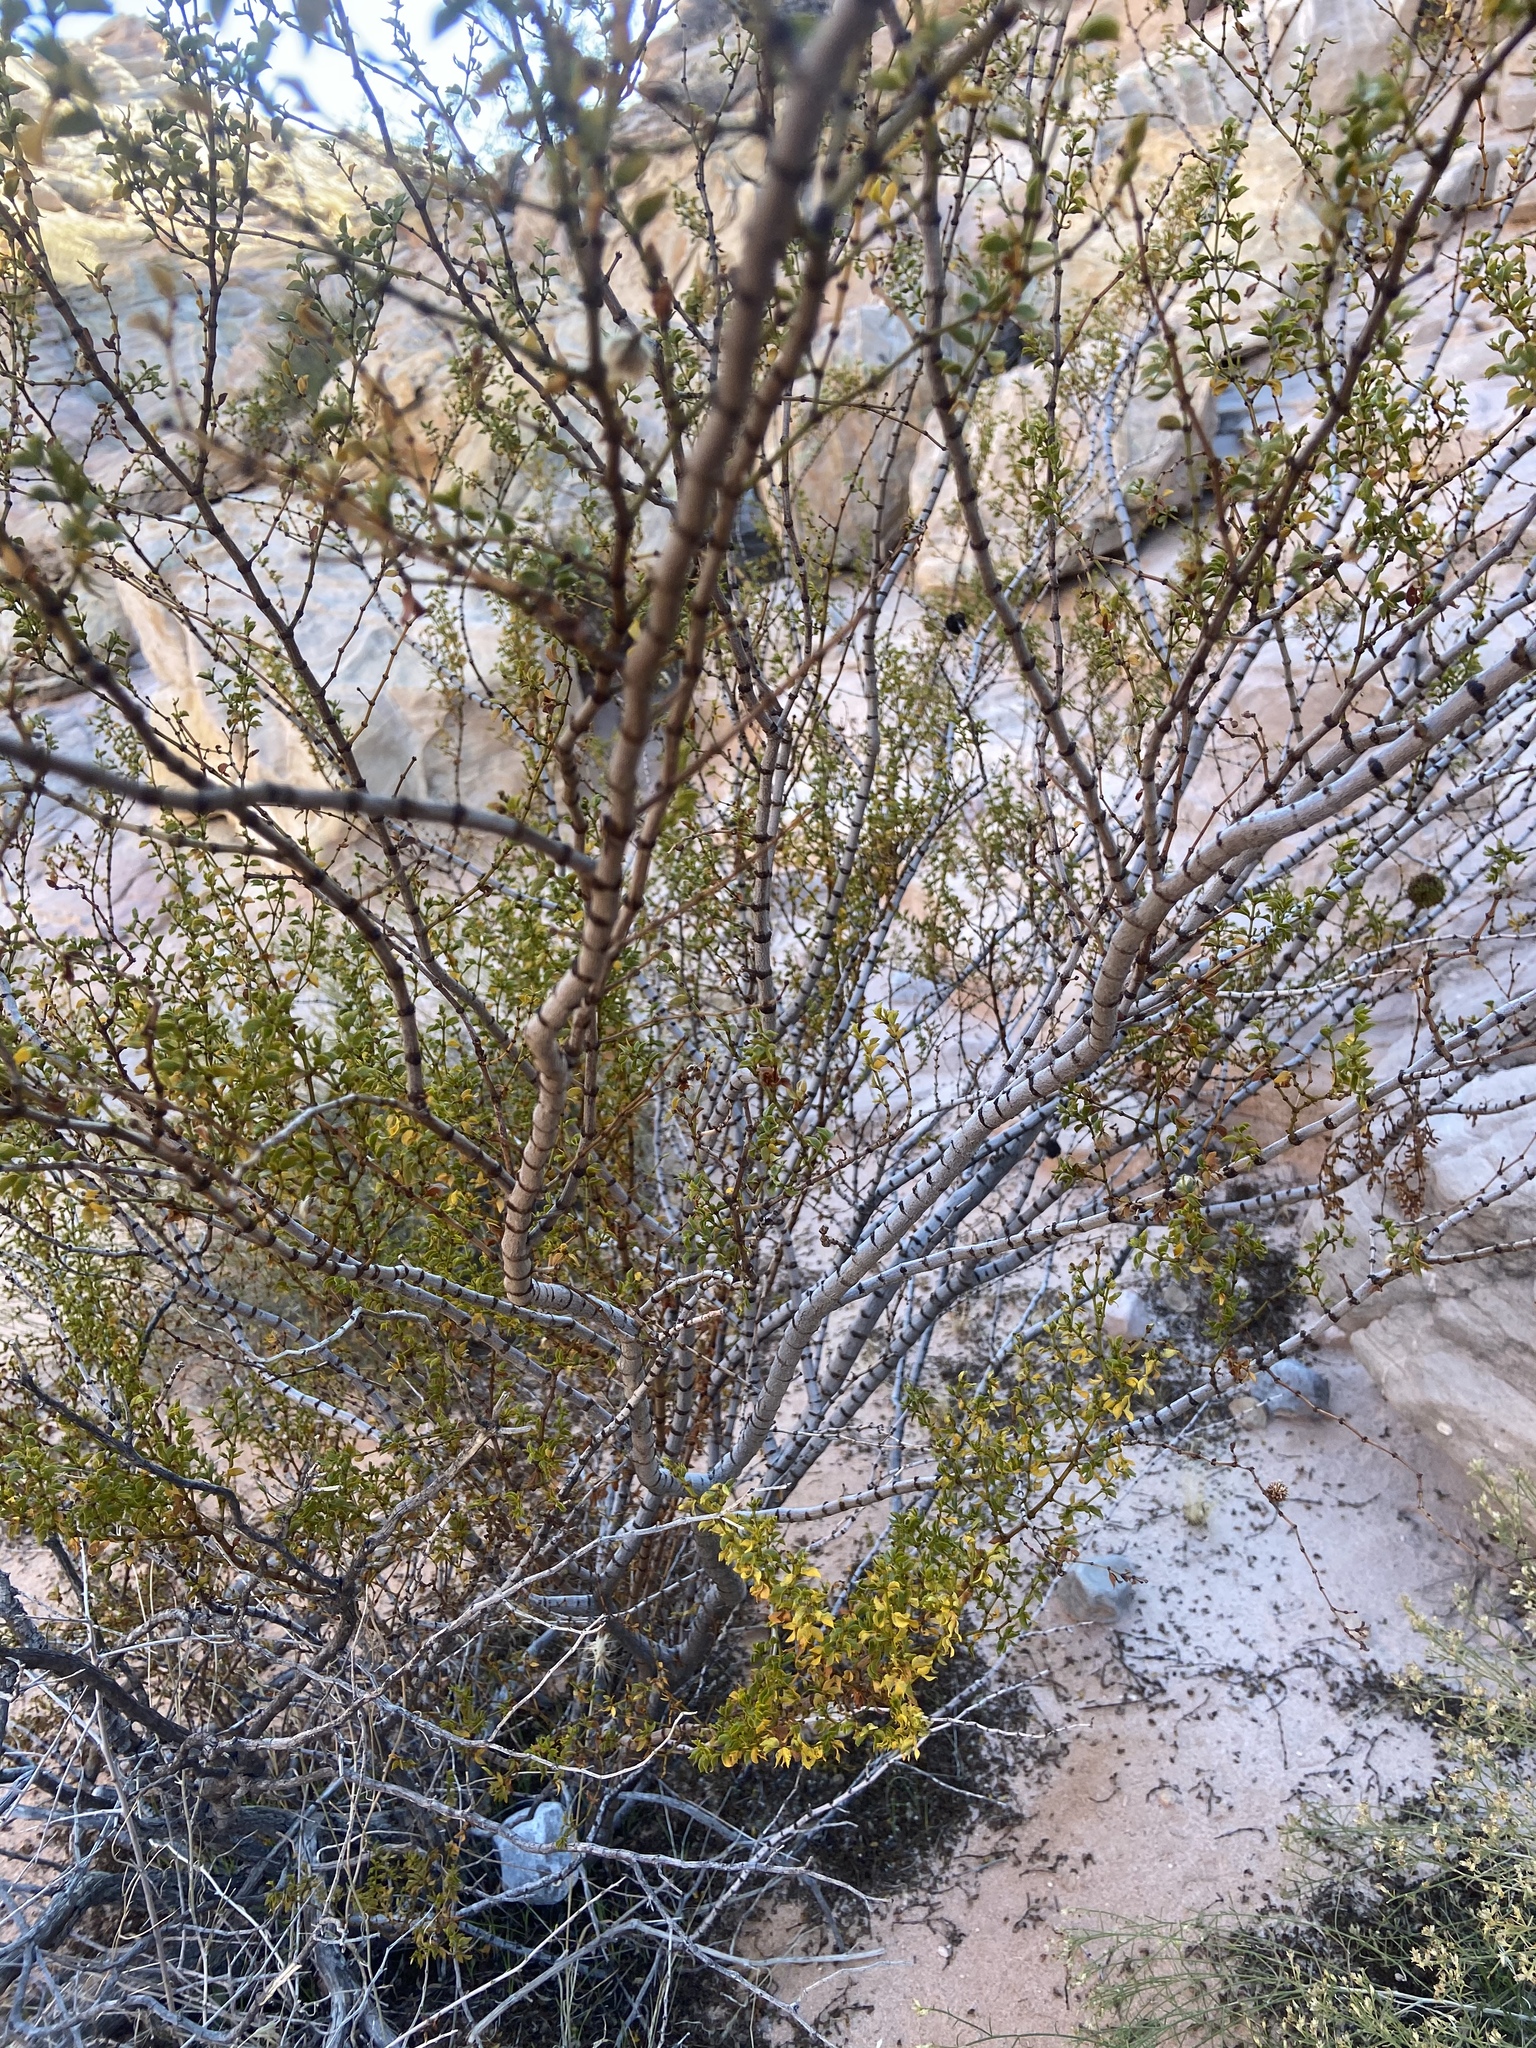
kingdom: Plantae
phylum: Tracheophyta
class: Magnoliopsida
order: Zygophyllales
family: Zygophyllaceae
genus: Larrea
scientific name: Larrea tridentata
